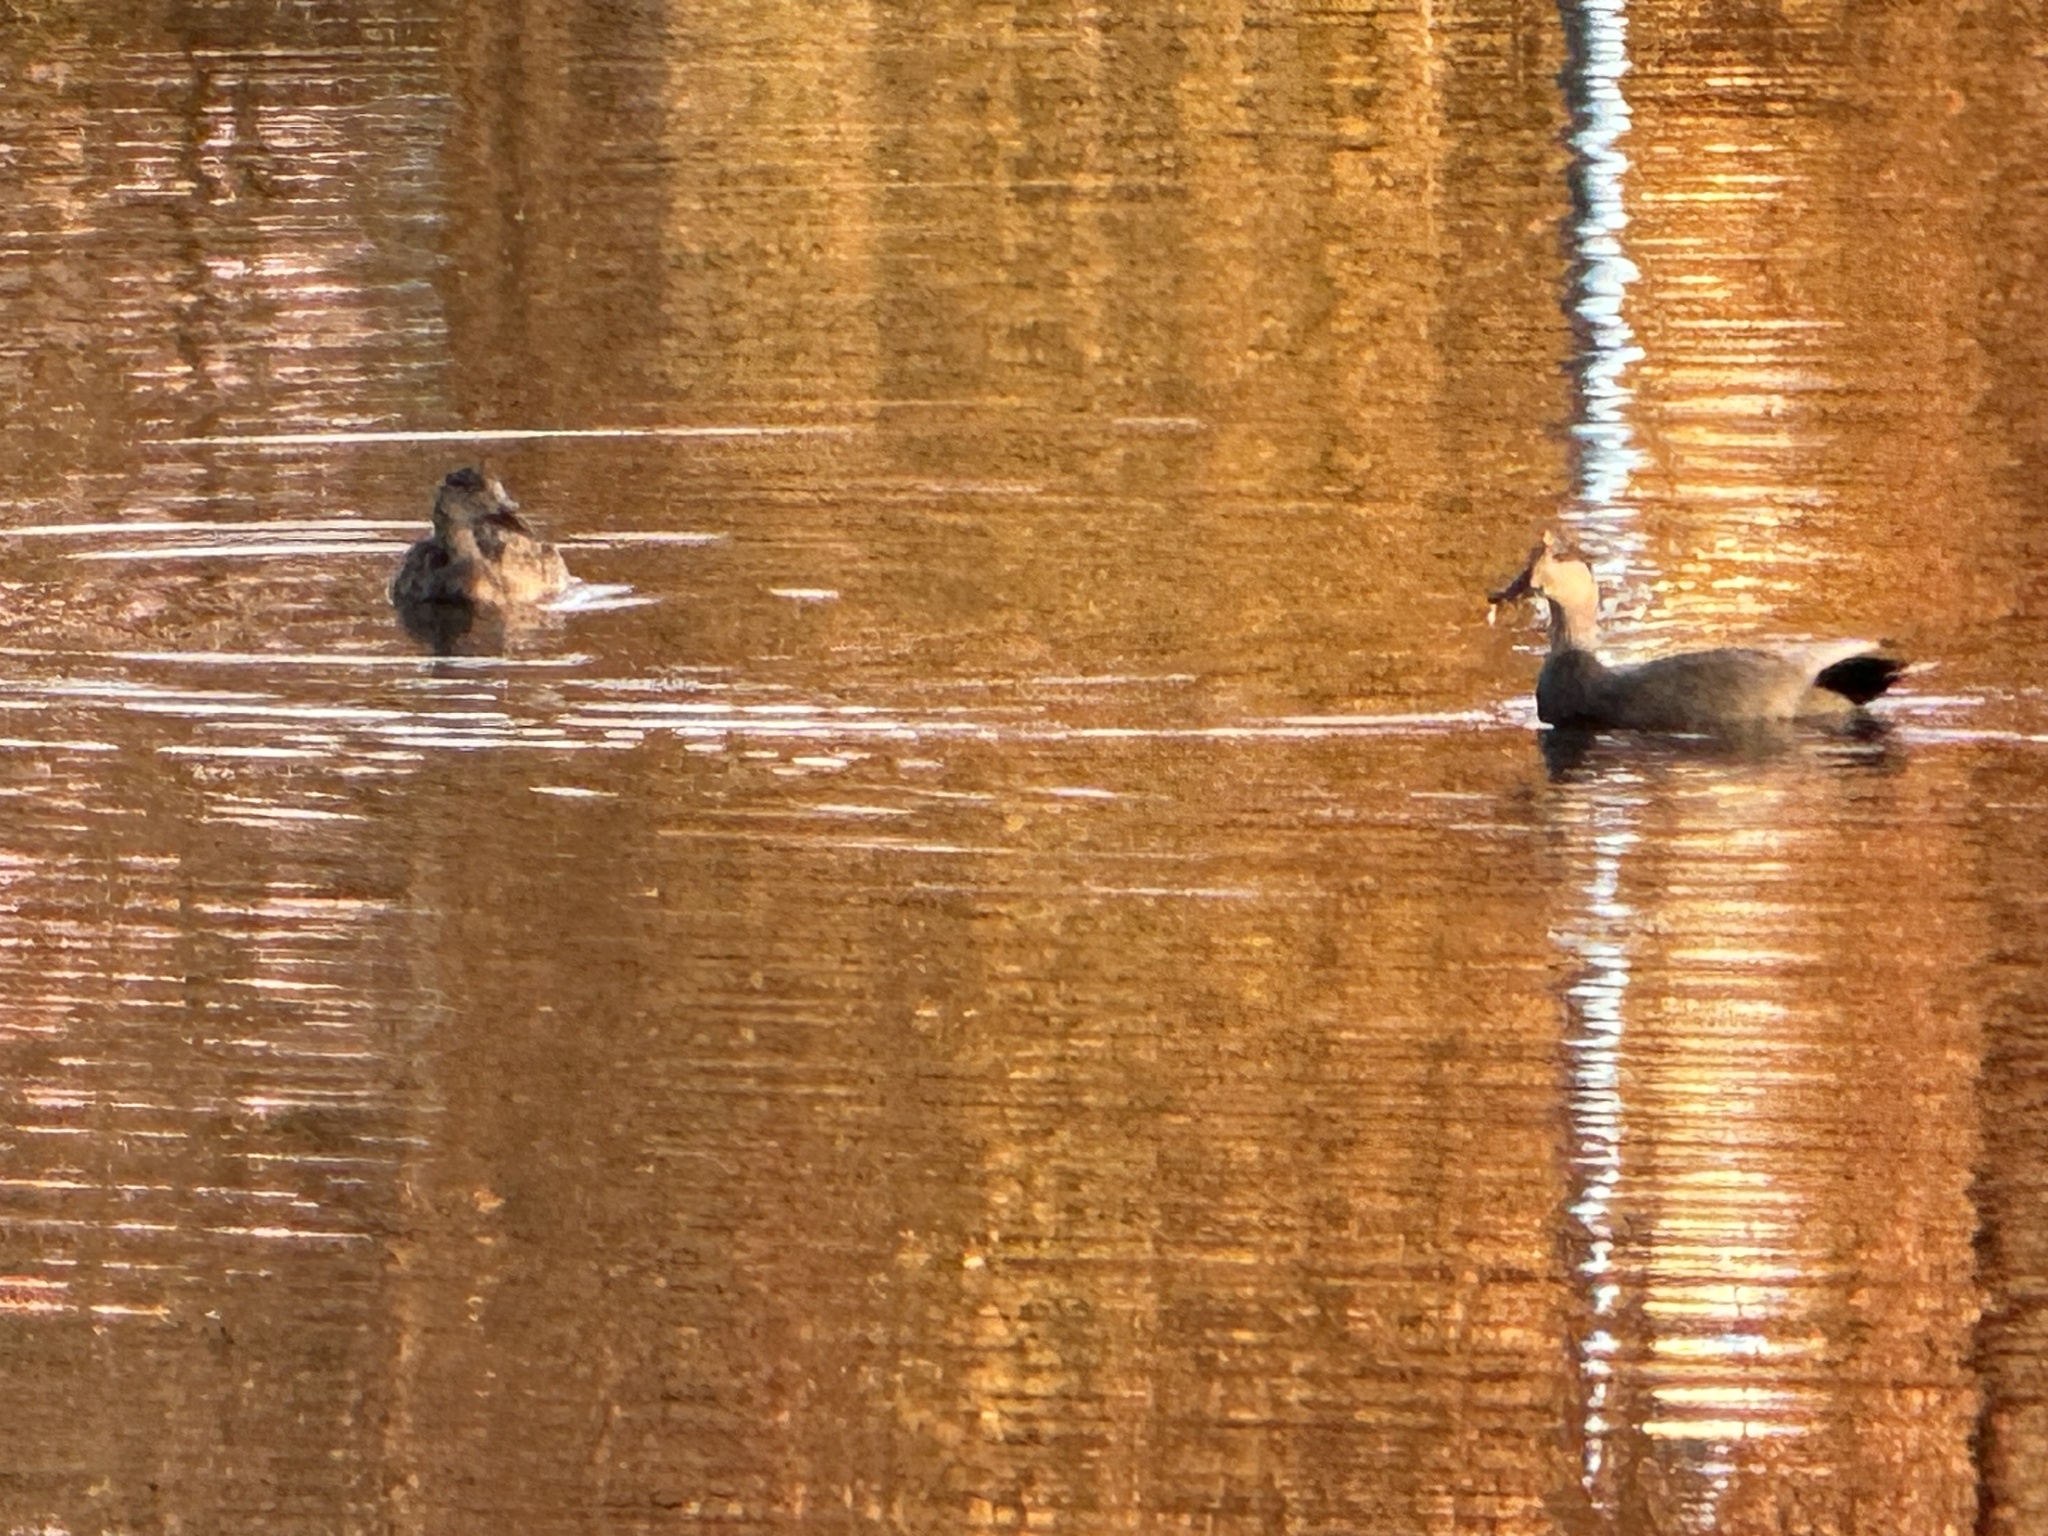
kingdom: Animalia
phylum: Chordata
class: Aves
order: Anseriformes
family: Anatidae
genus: Mareca
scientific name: Mareca strepera
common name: Gadwall
